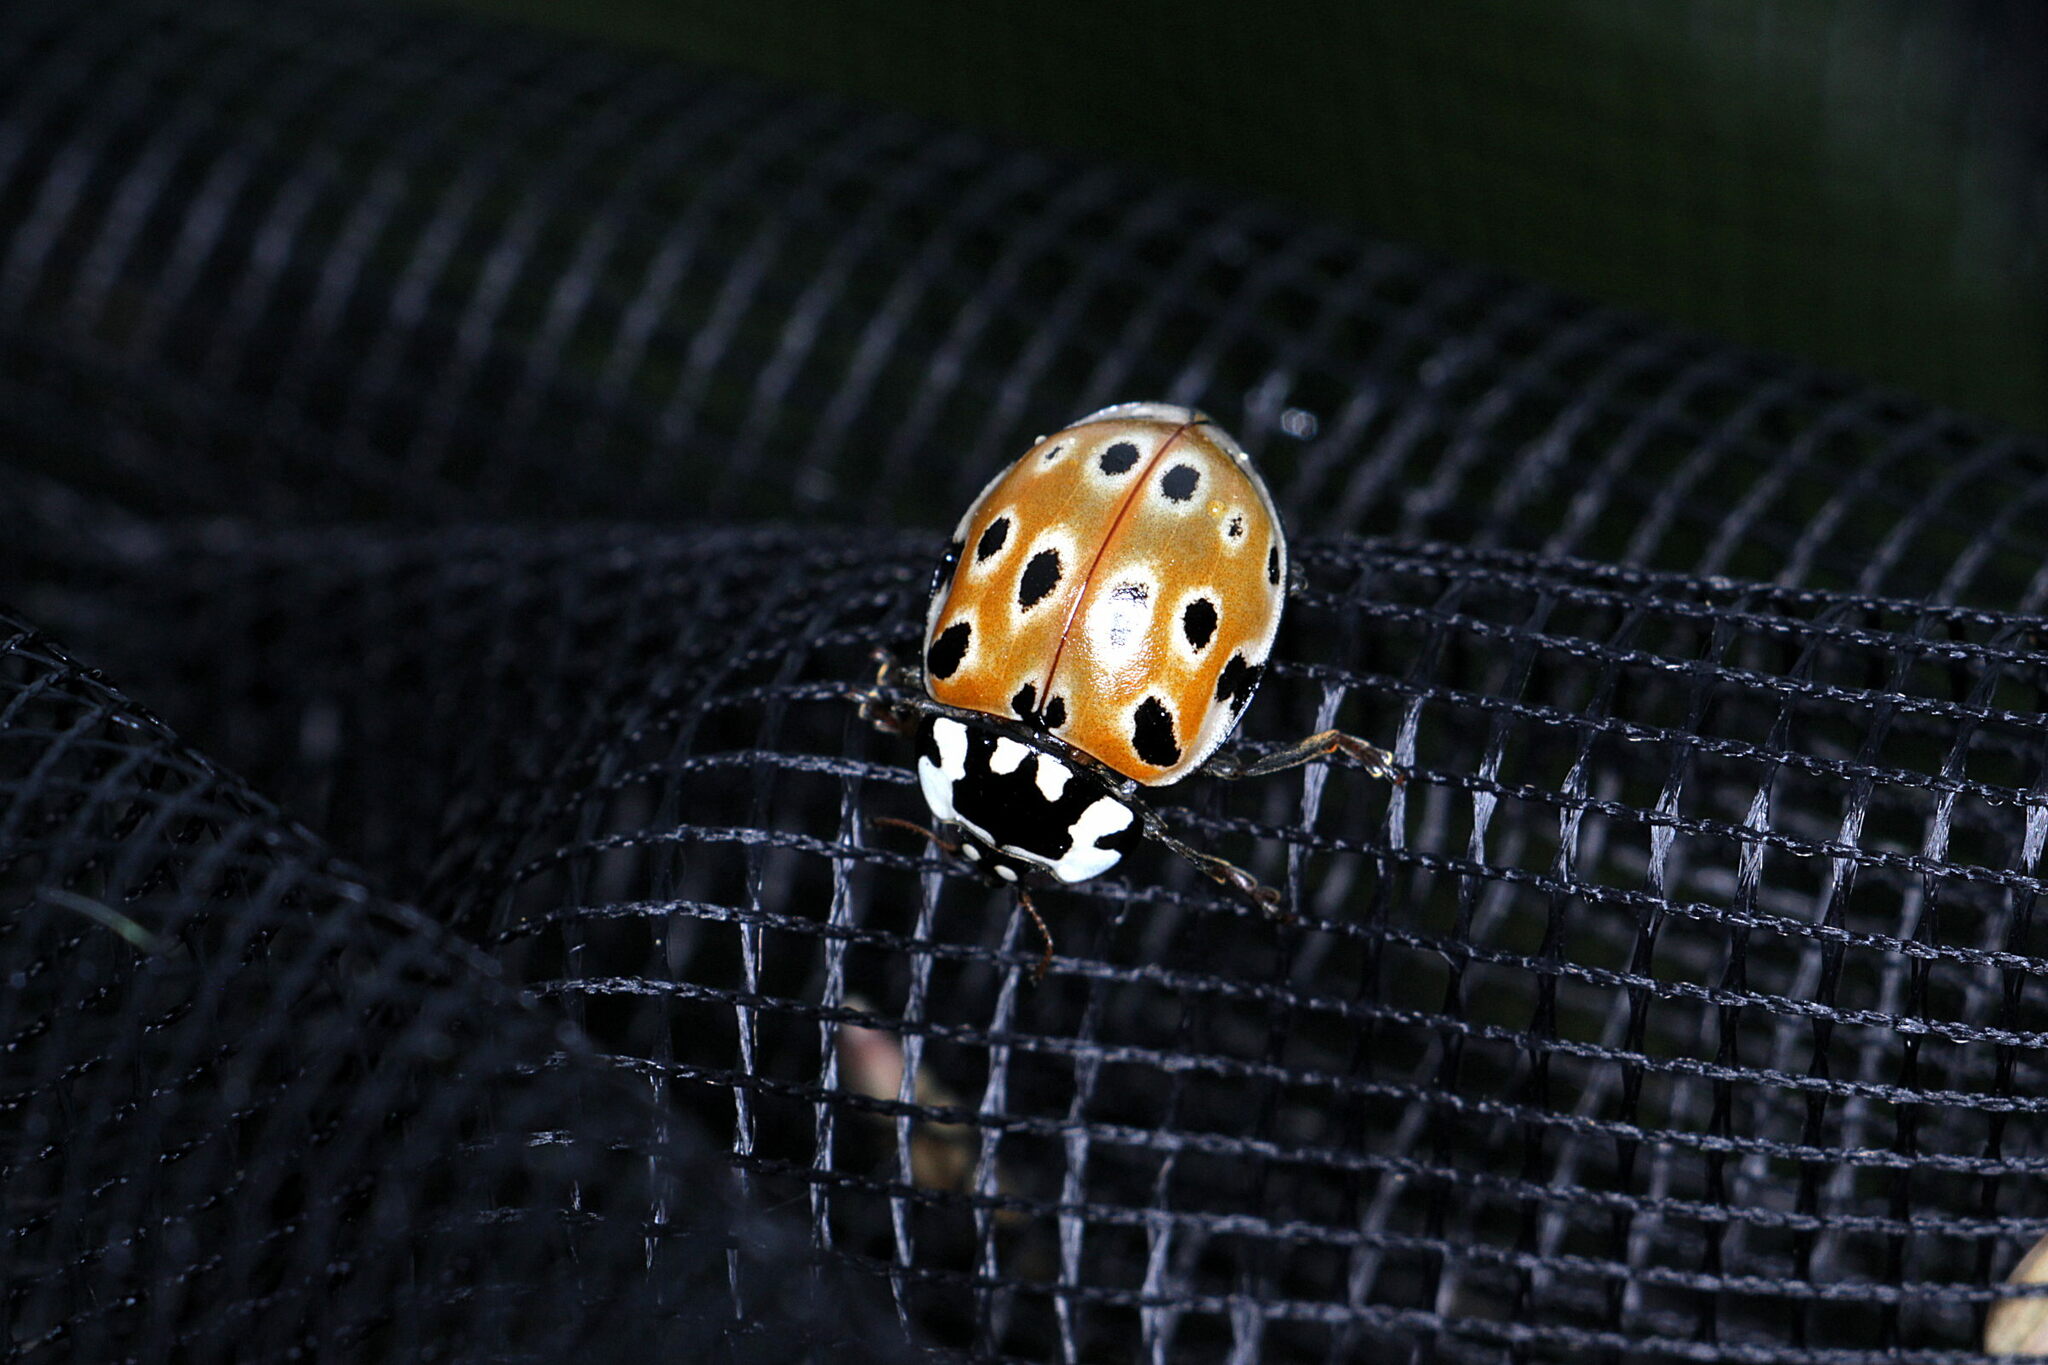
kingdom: Animalia
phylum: Arthropoda
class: Insecta
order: Coleoptera
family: Coccinellidae
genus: Anatis
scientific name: Anatis ocellata
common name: Eyed ladybird
